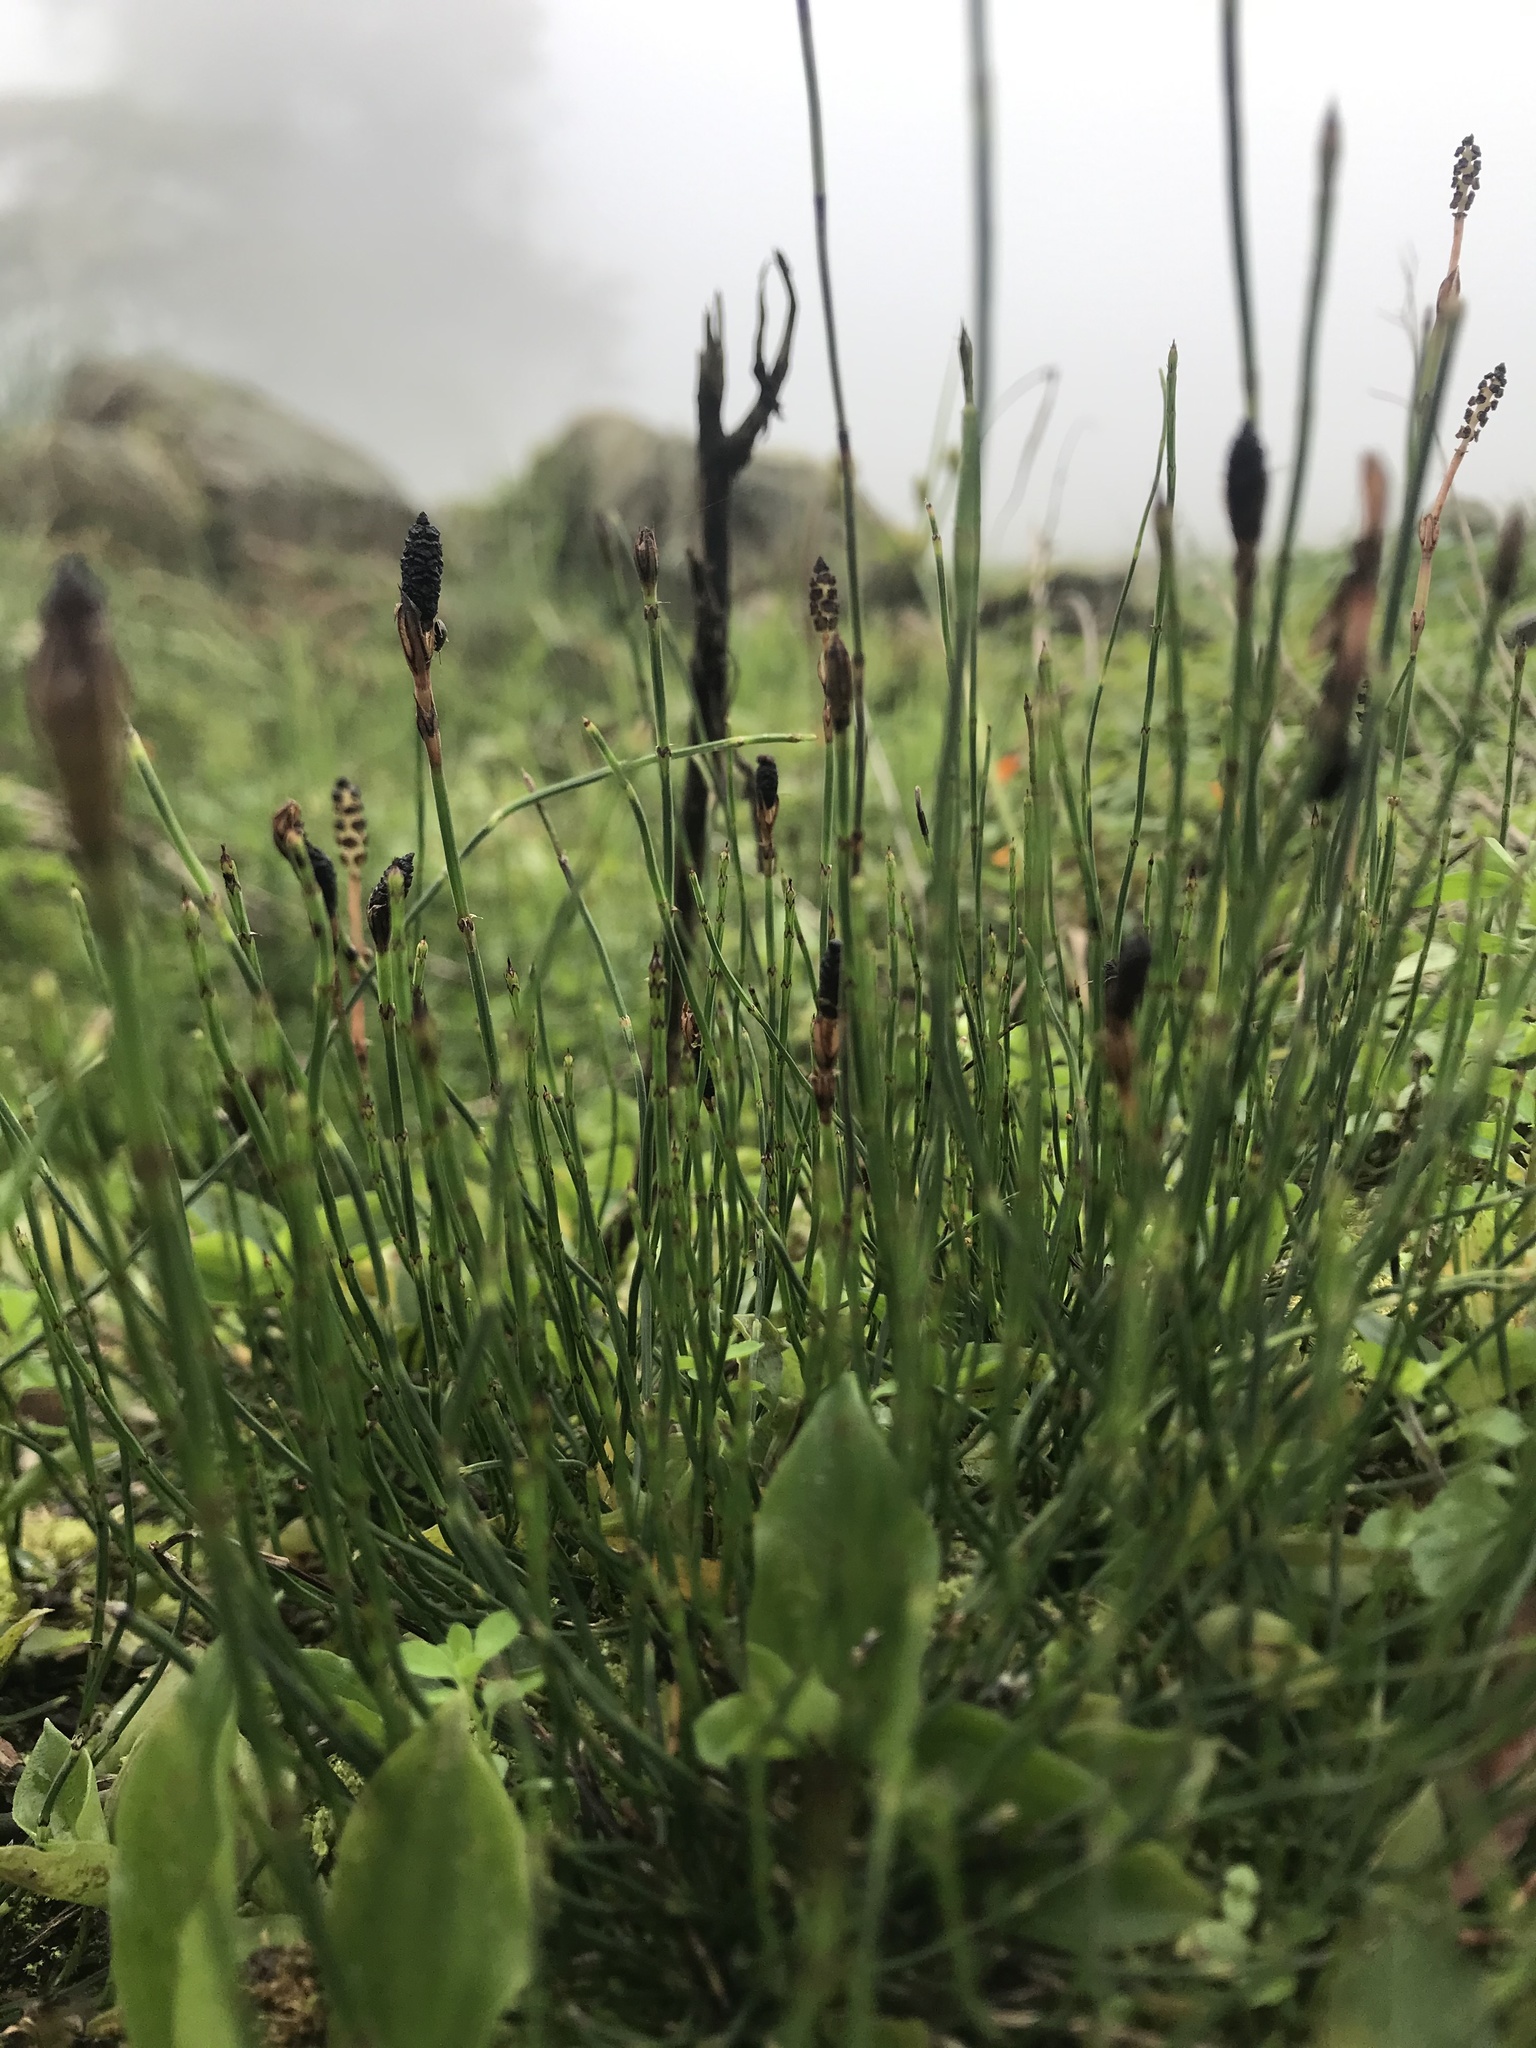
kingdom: Plantae
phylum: Tracheophyta
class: Polypodiopsida
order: Equisetales
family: Equisetaceae
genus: Equisetum
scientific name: Equisetum bogotense
